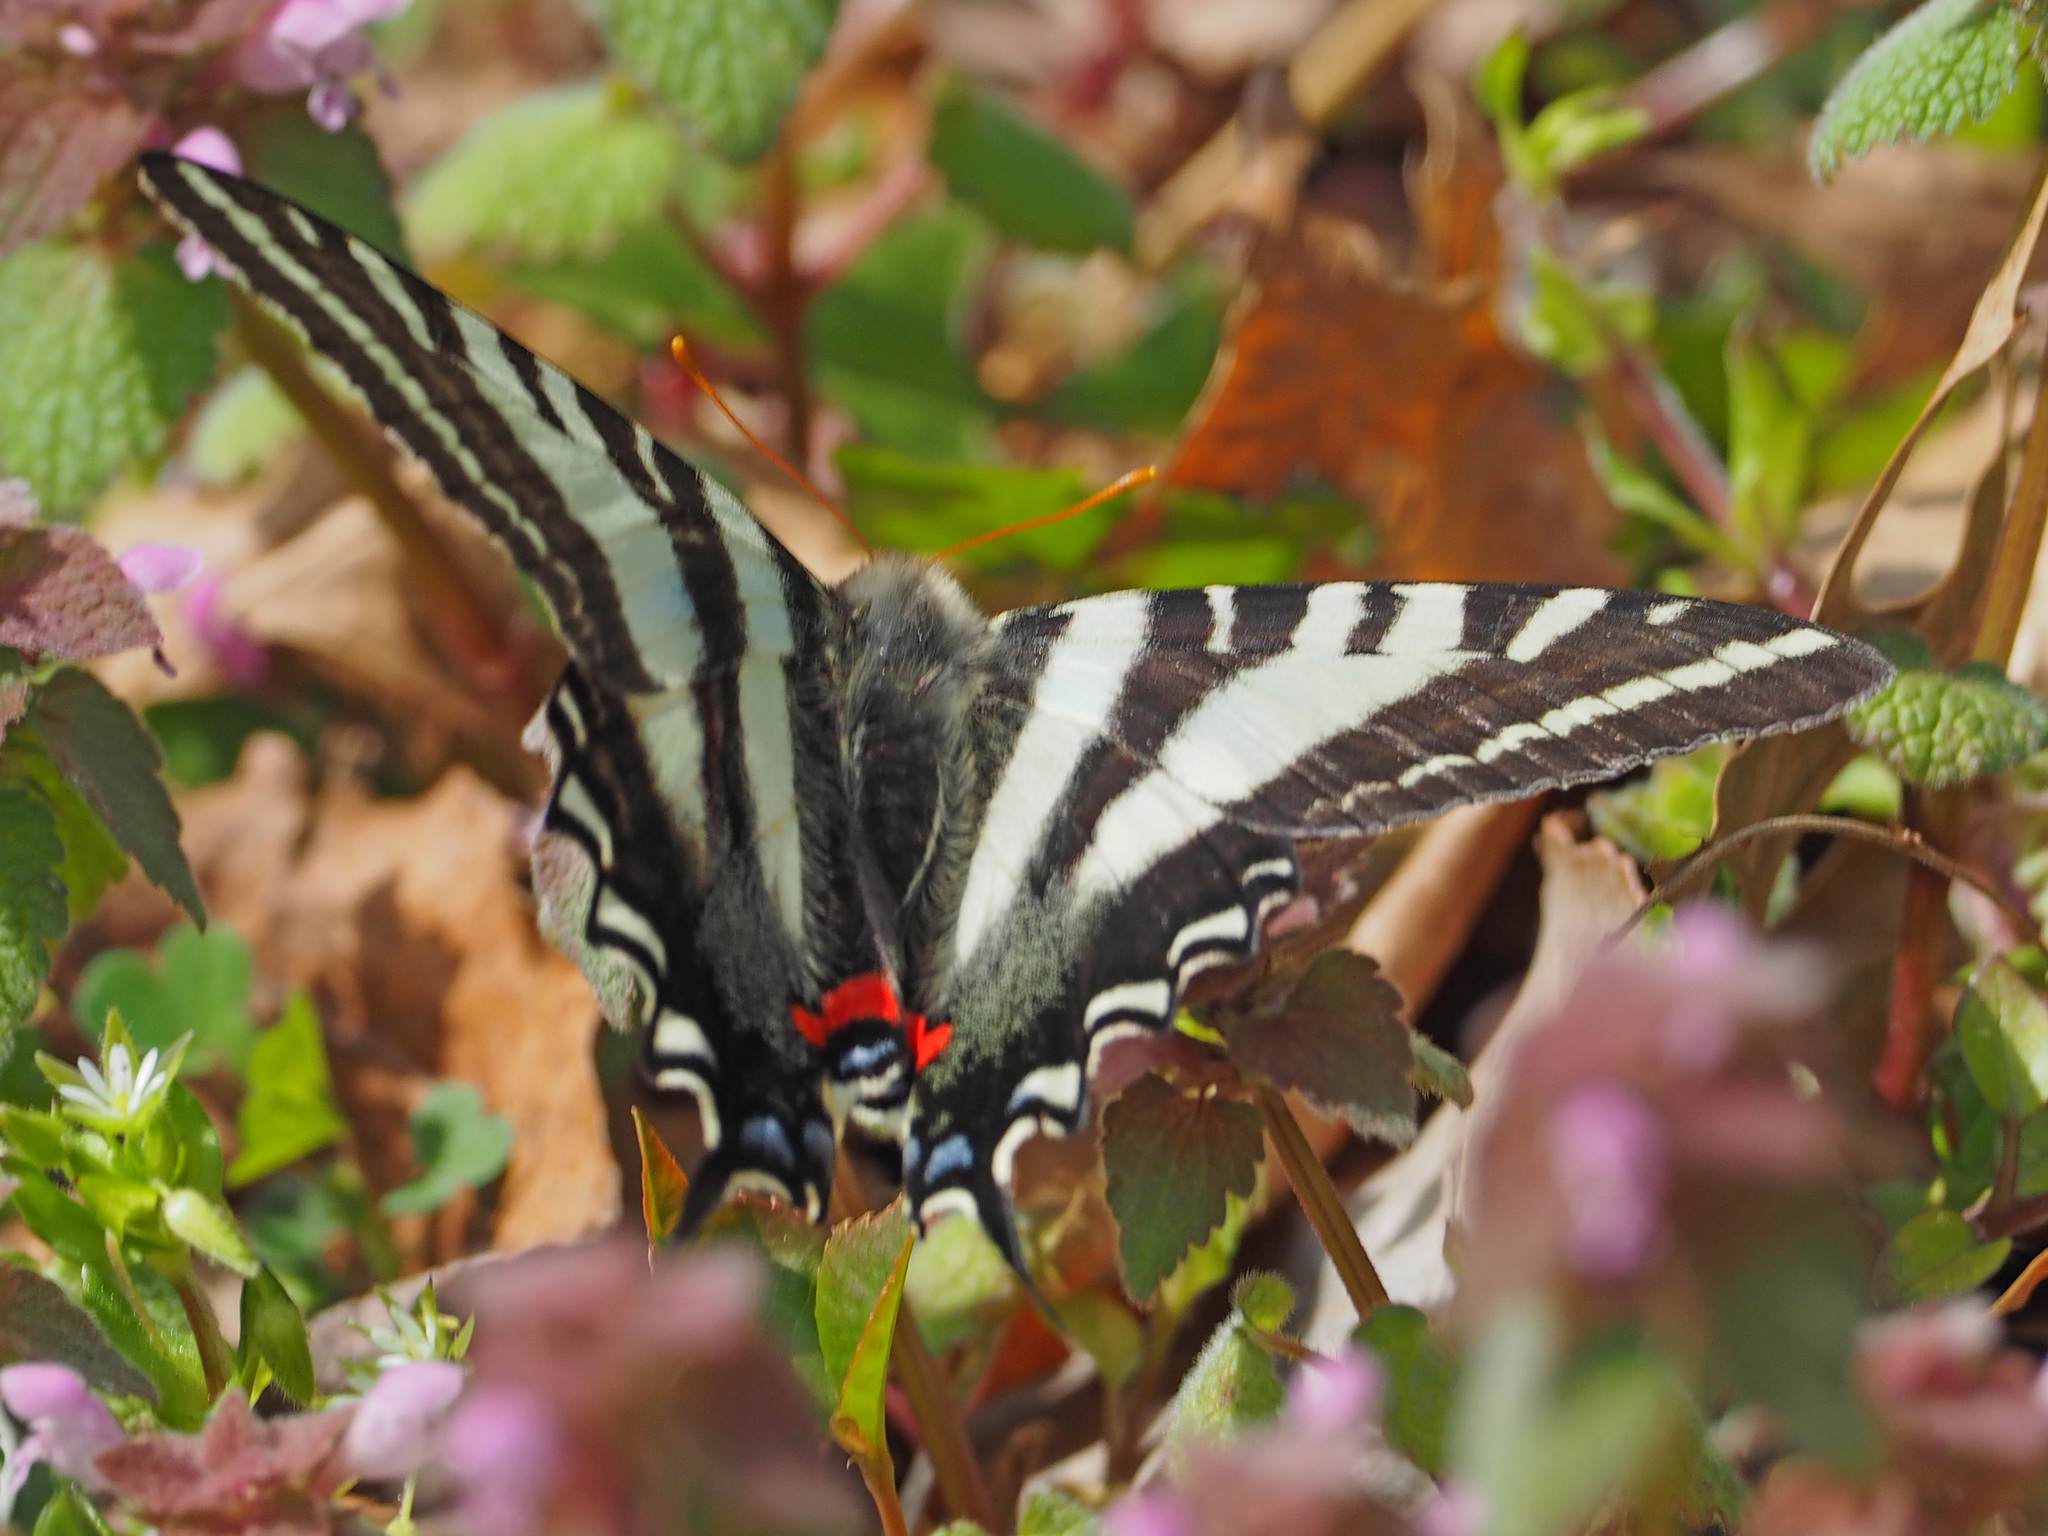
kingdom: Animalia
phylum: Arthropoda
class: Insecta
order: Lepidoptera
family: Papilionidae
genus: Protographium
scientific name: Protographium marcellus
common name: Zebra swallowtail
